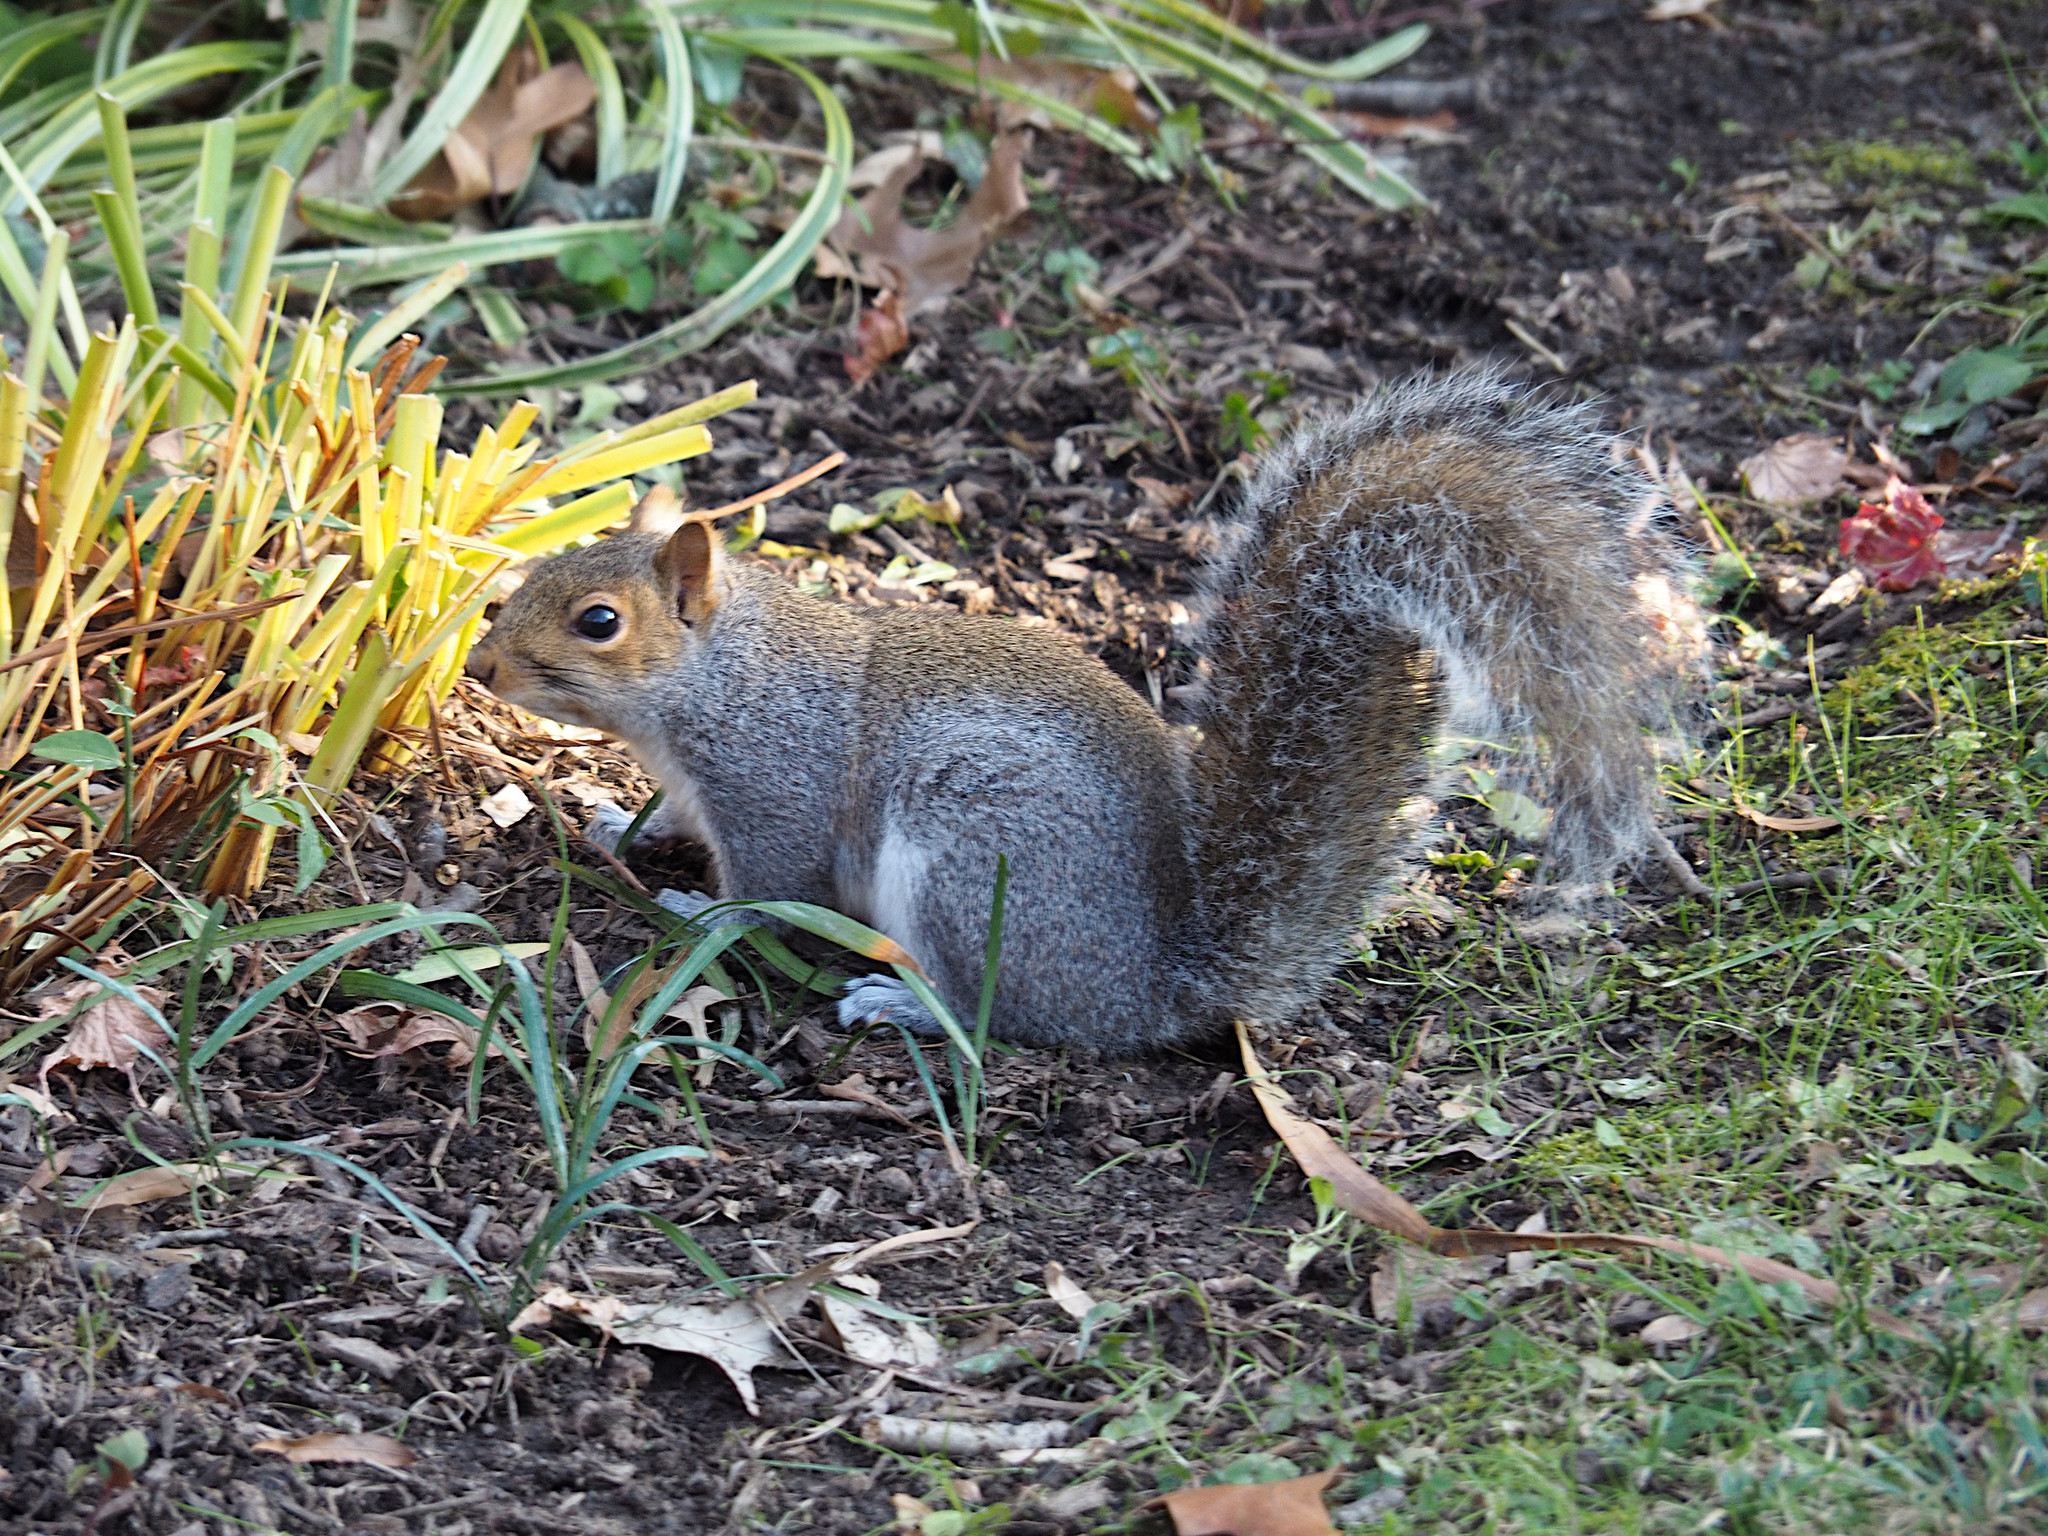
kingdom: Animalia
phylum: Chordata
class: Mammalia
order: Rodentia
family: Sciuridae
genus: Sciurus
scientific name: Sciurus carolinensis
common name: Eastern gray squirrel
